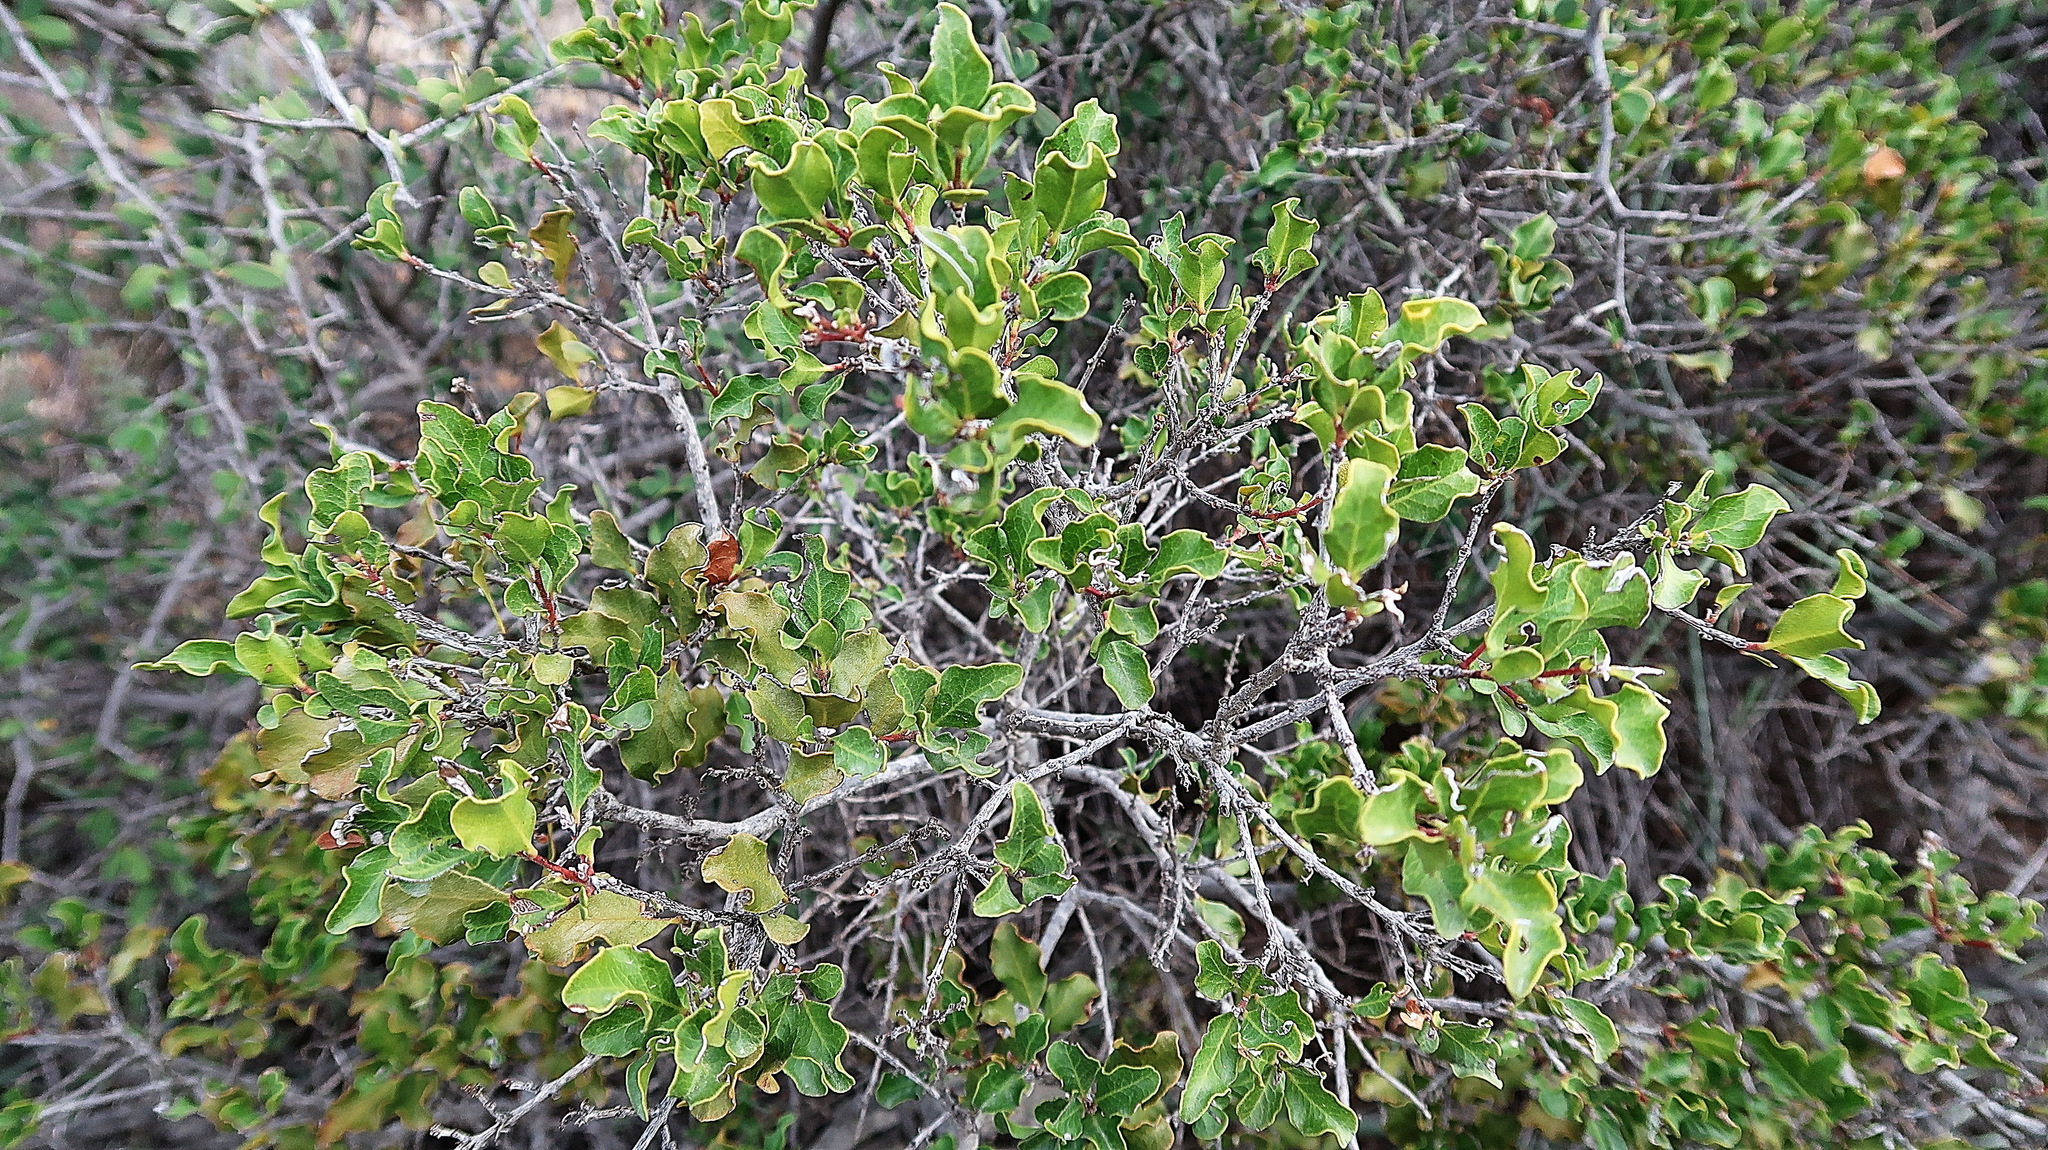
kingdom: Plantae
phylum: Tracheophyta
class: Magnoliopsida
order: Ericales
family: Ebenaceae
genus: Euclea
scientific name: Euclea undulata
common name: Small-leaved guarri
